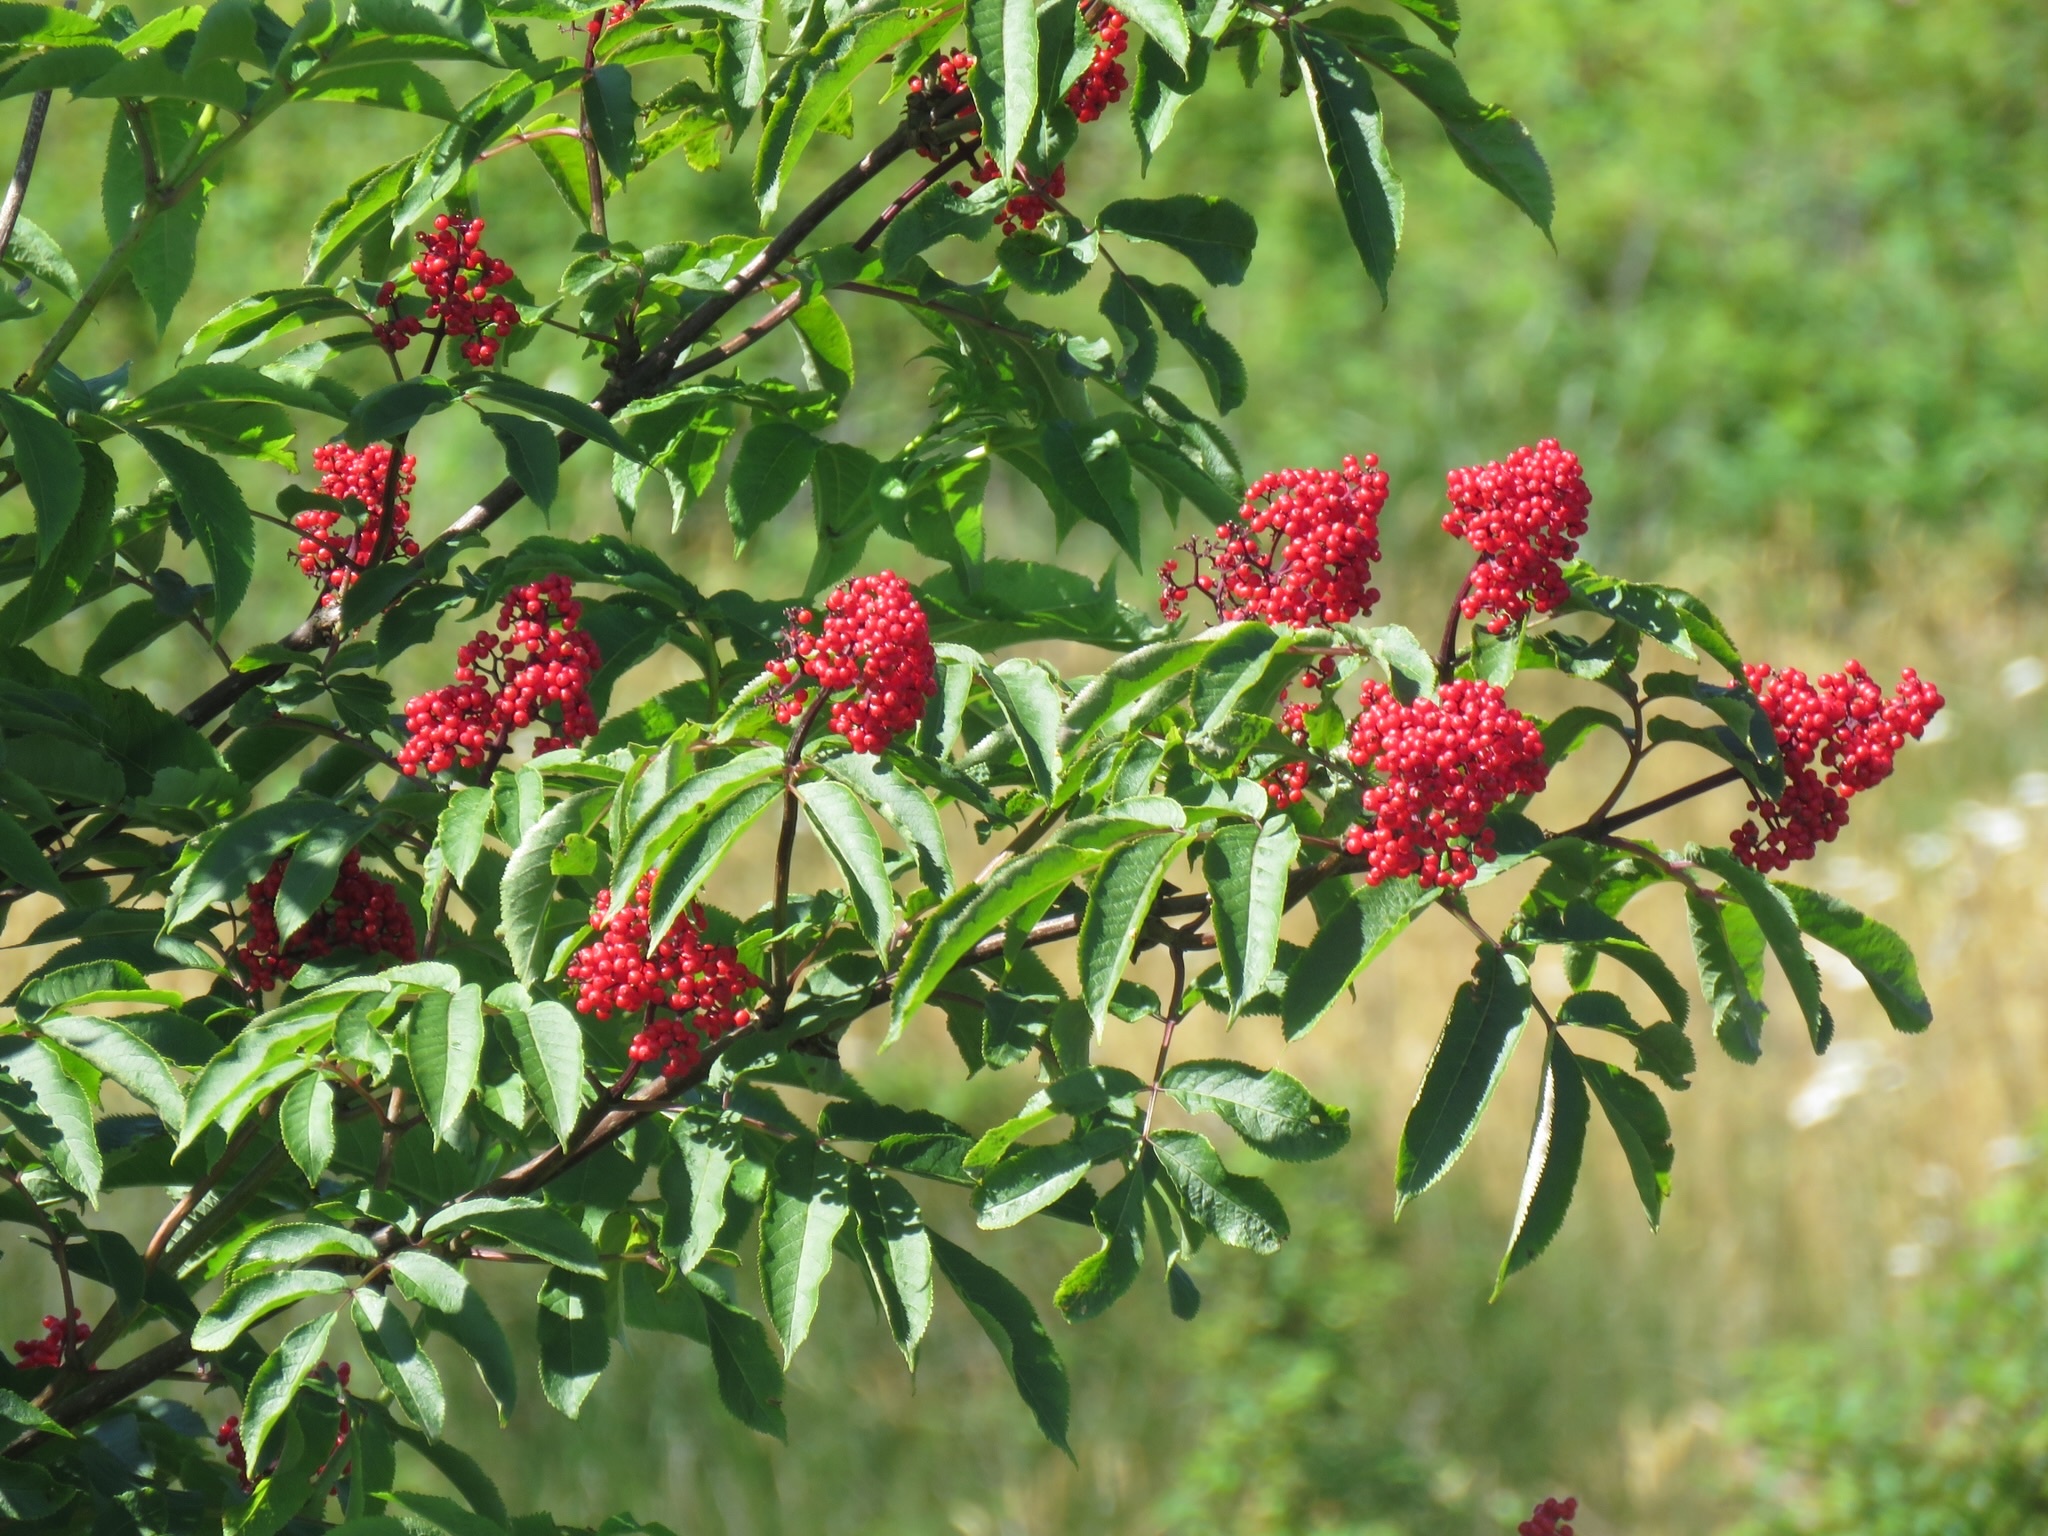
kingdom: Plantae
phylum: Tracheophyta
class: Magnoliopsida
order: Dipsacales
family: Viburnaceae
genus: Sambucus
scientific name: Sambucus racemosa
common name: Red-berried elder
